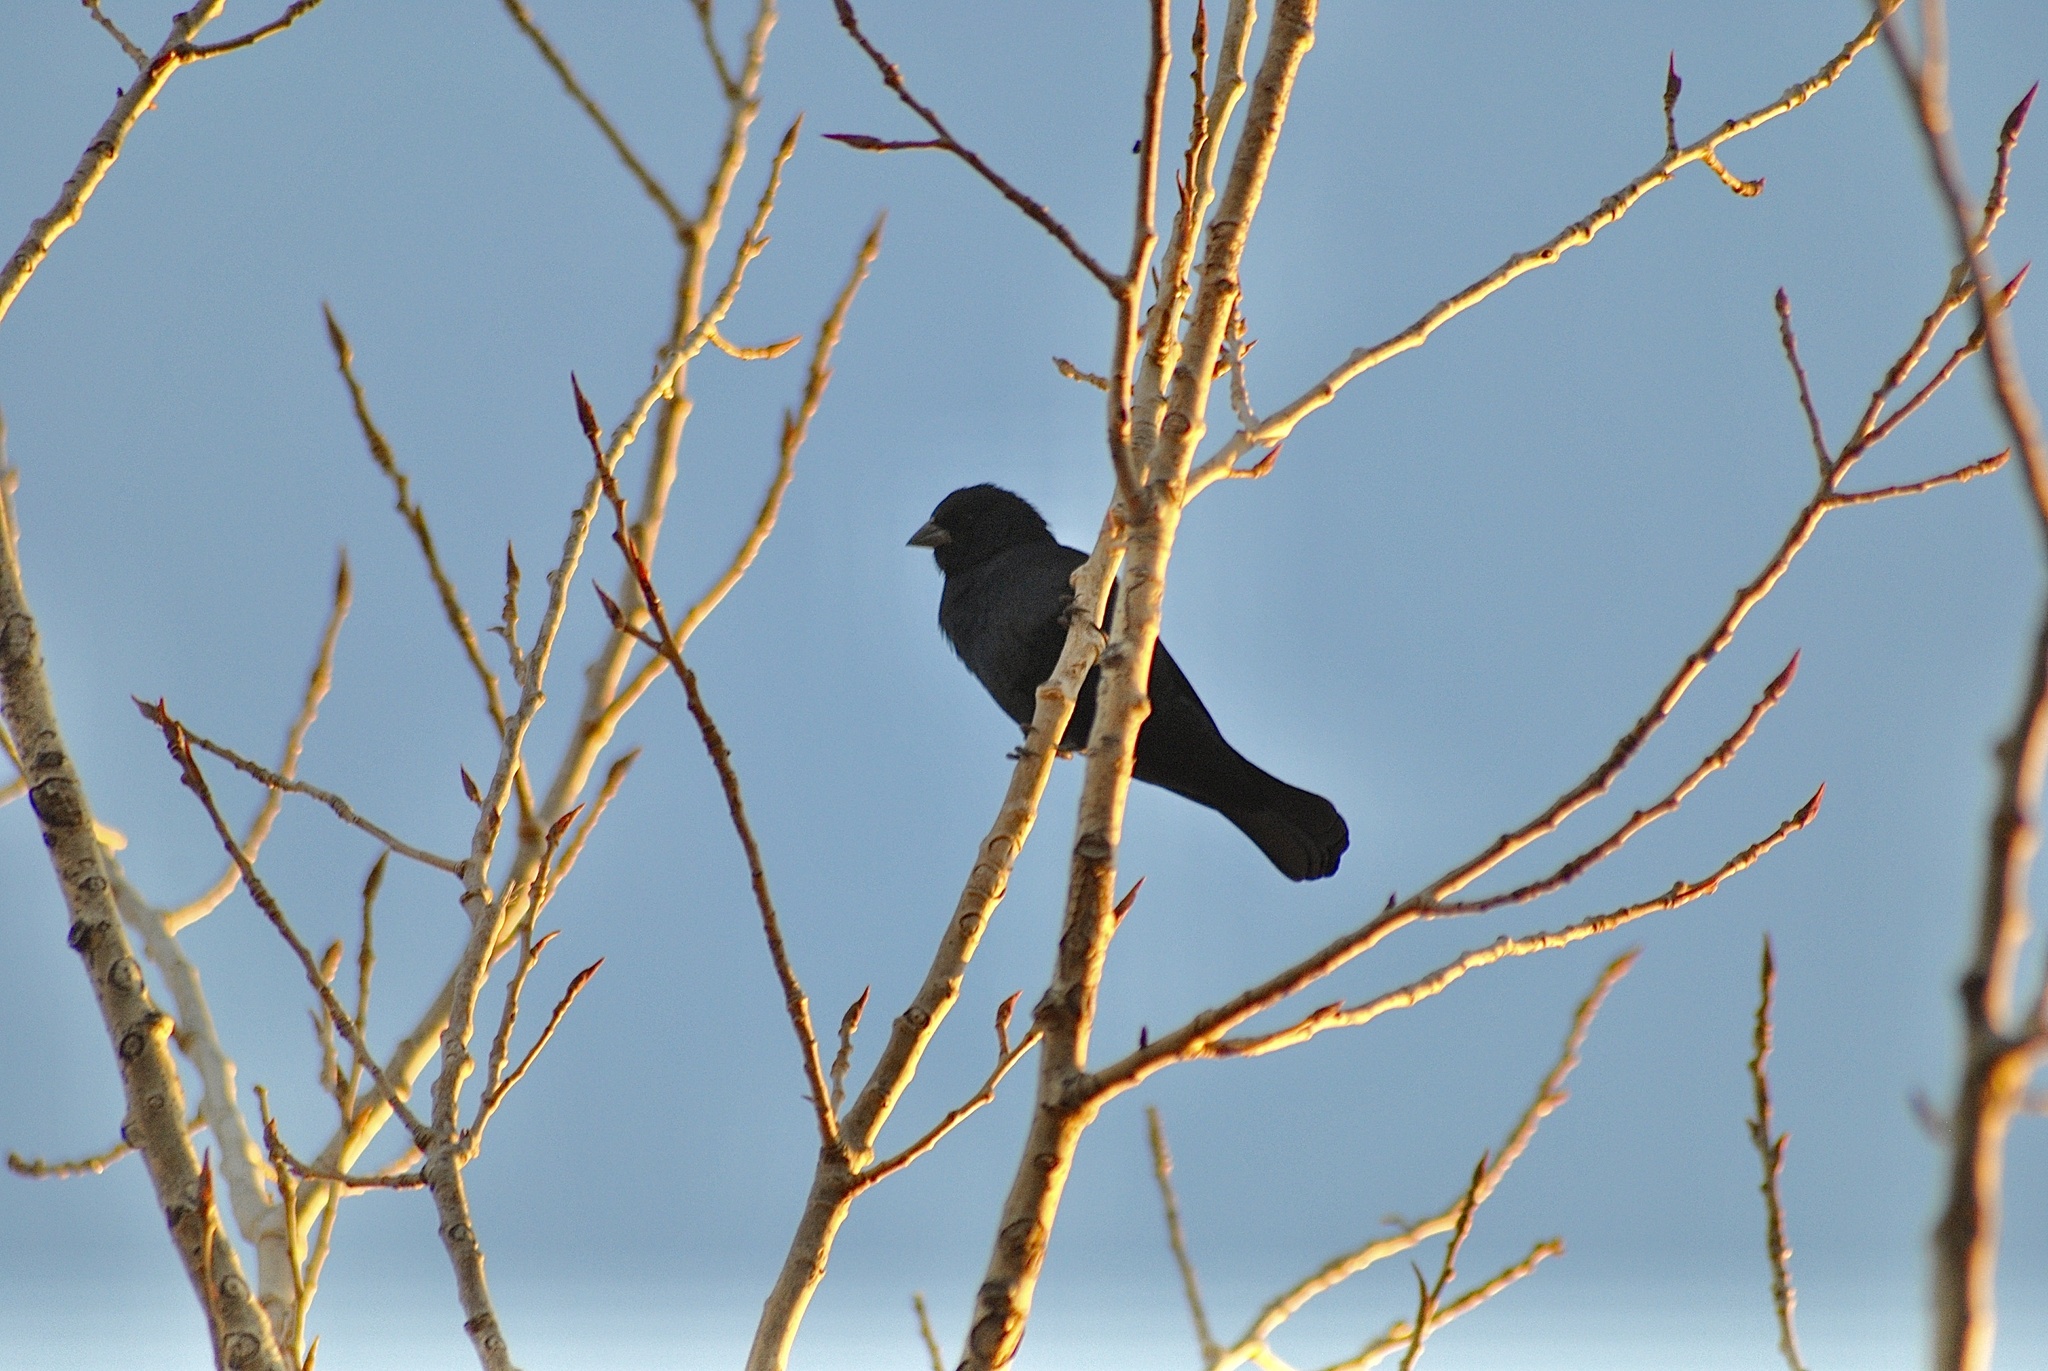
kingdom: Animalia
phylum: Chordata
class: Aves
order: Passeriformes
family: Icteridae
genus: Molothrus
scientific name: Molothrus rufoaxillaris
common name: Screaming cowbird
